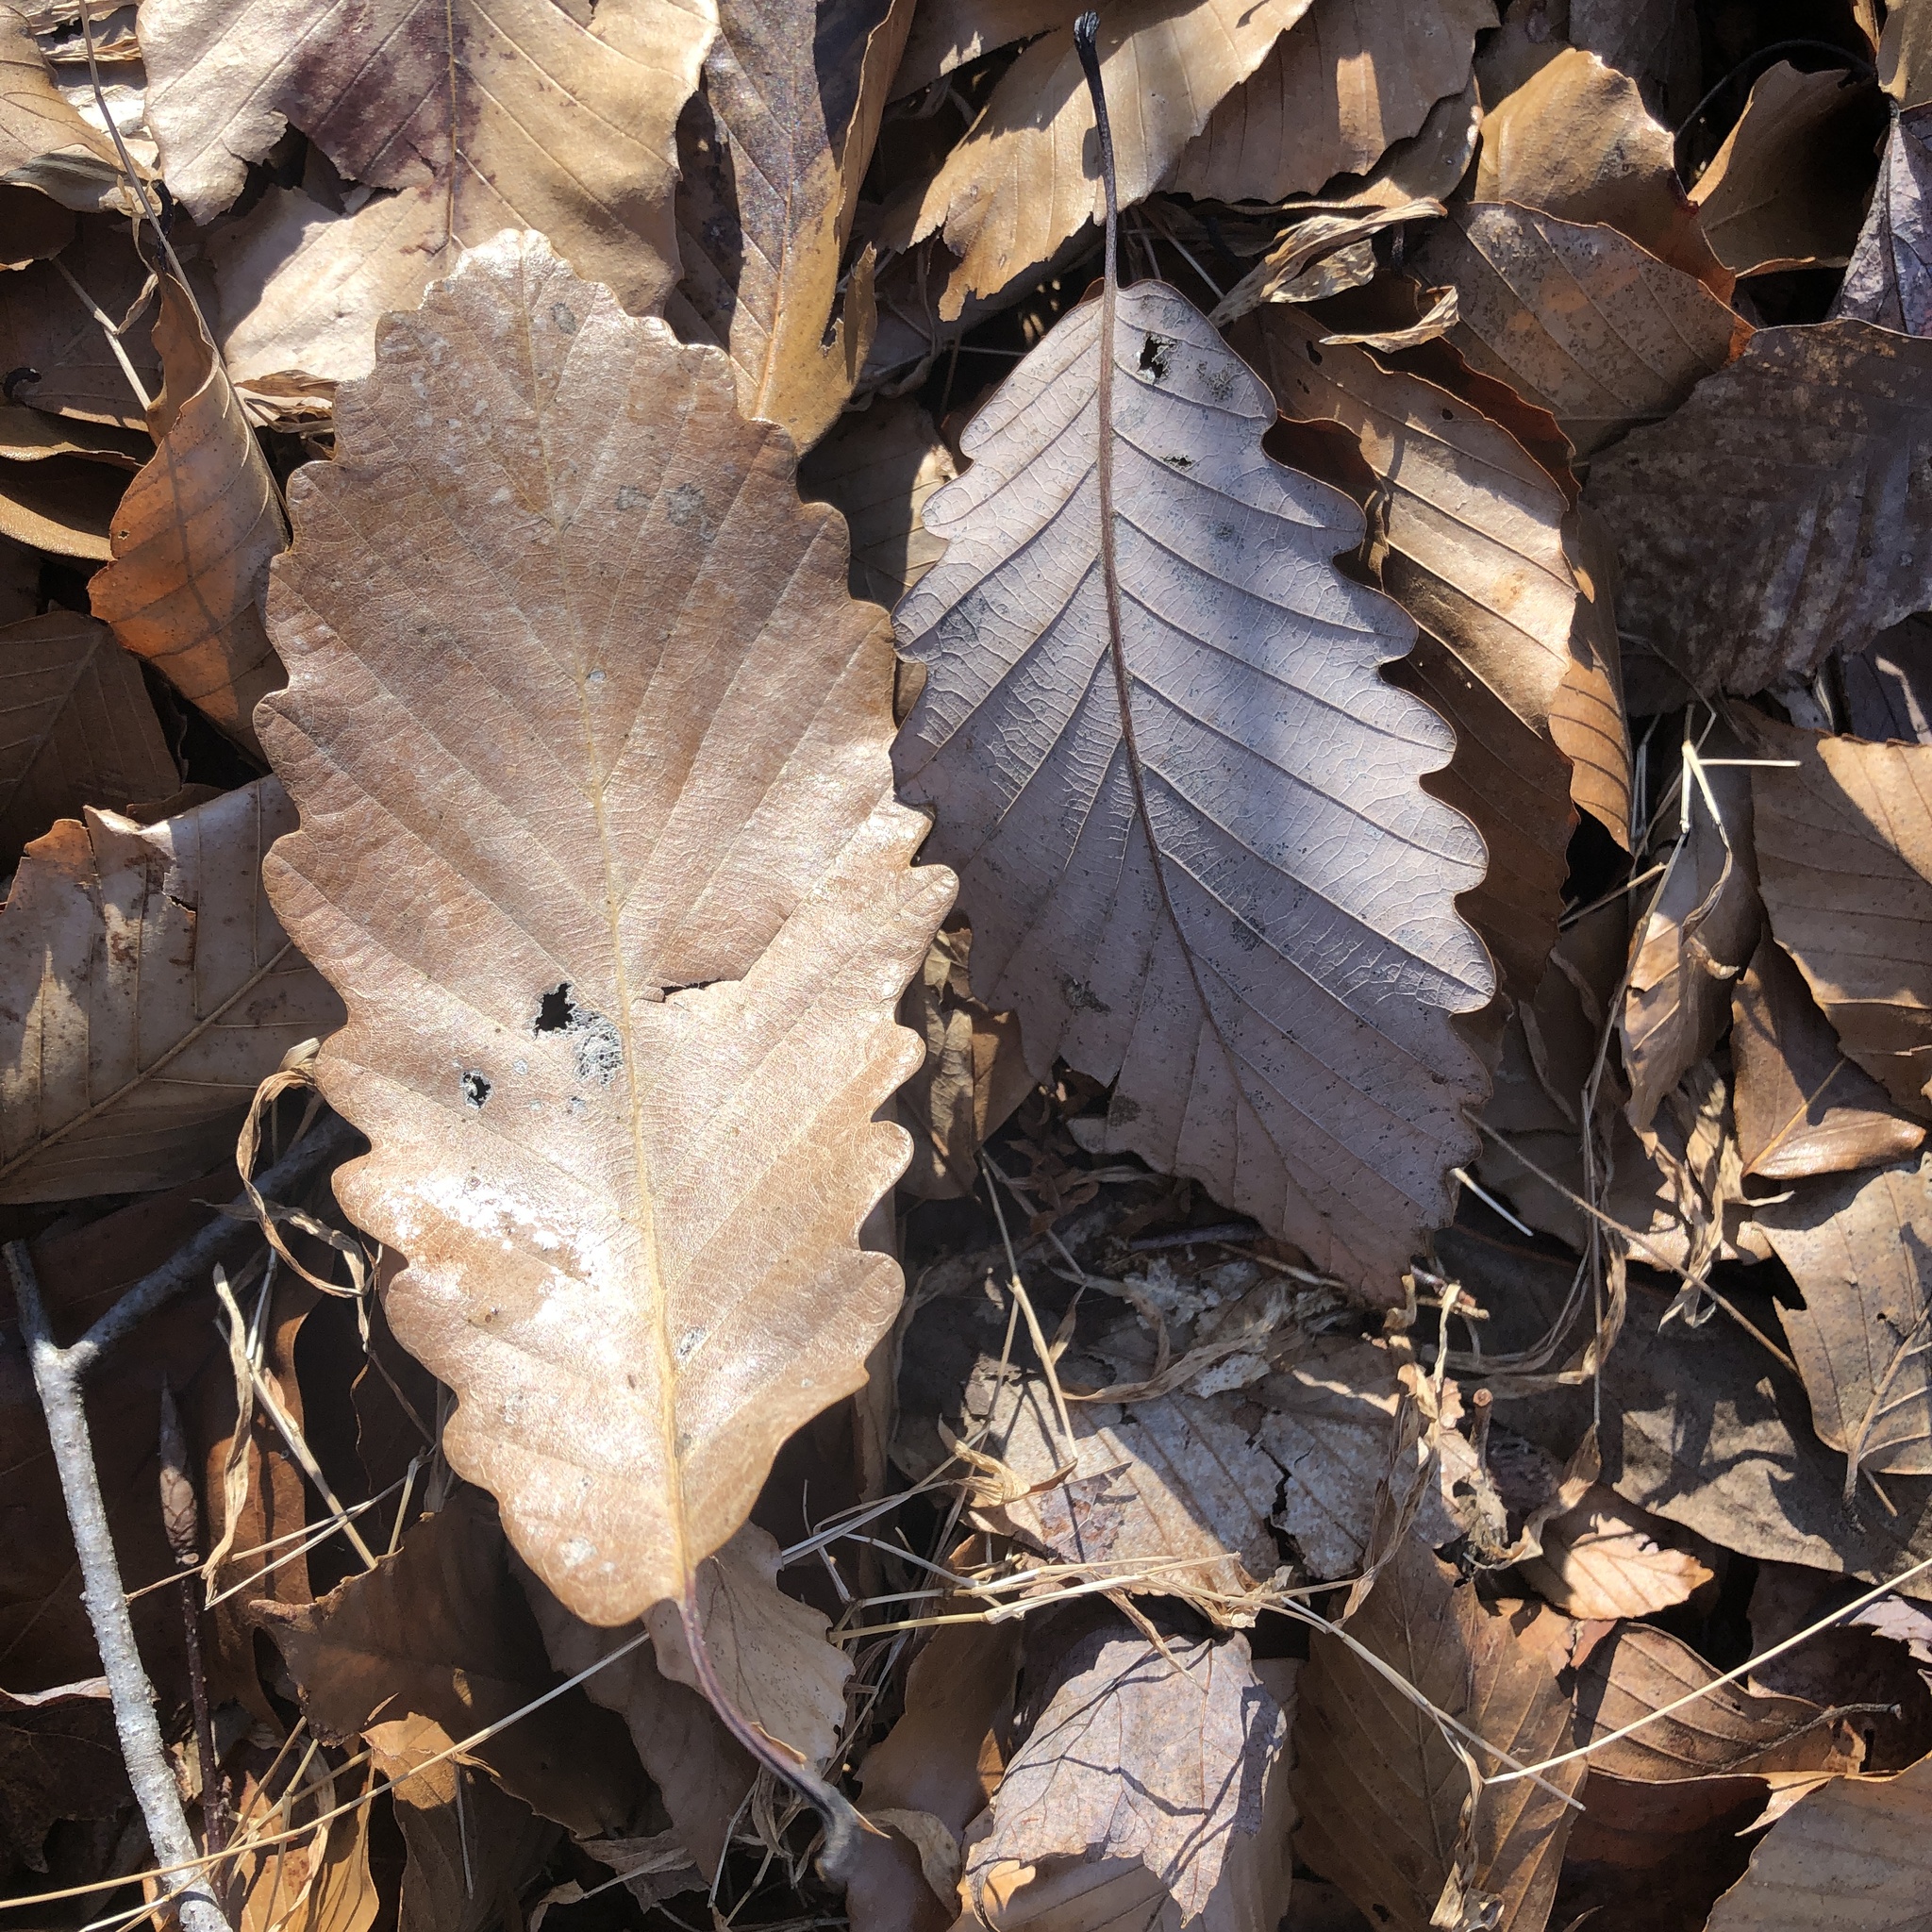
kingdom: Plantae
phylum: Tracheophyta
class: Magnoliopsida
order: Fagales
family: Fagaceae
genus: Quercus
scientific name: Quercus montana
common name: Chestnut oak
